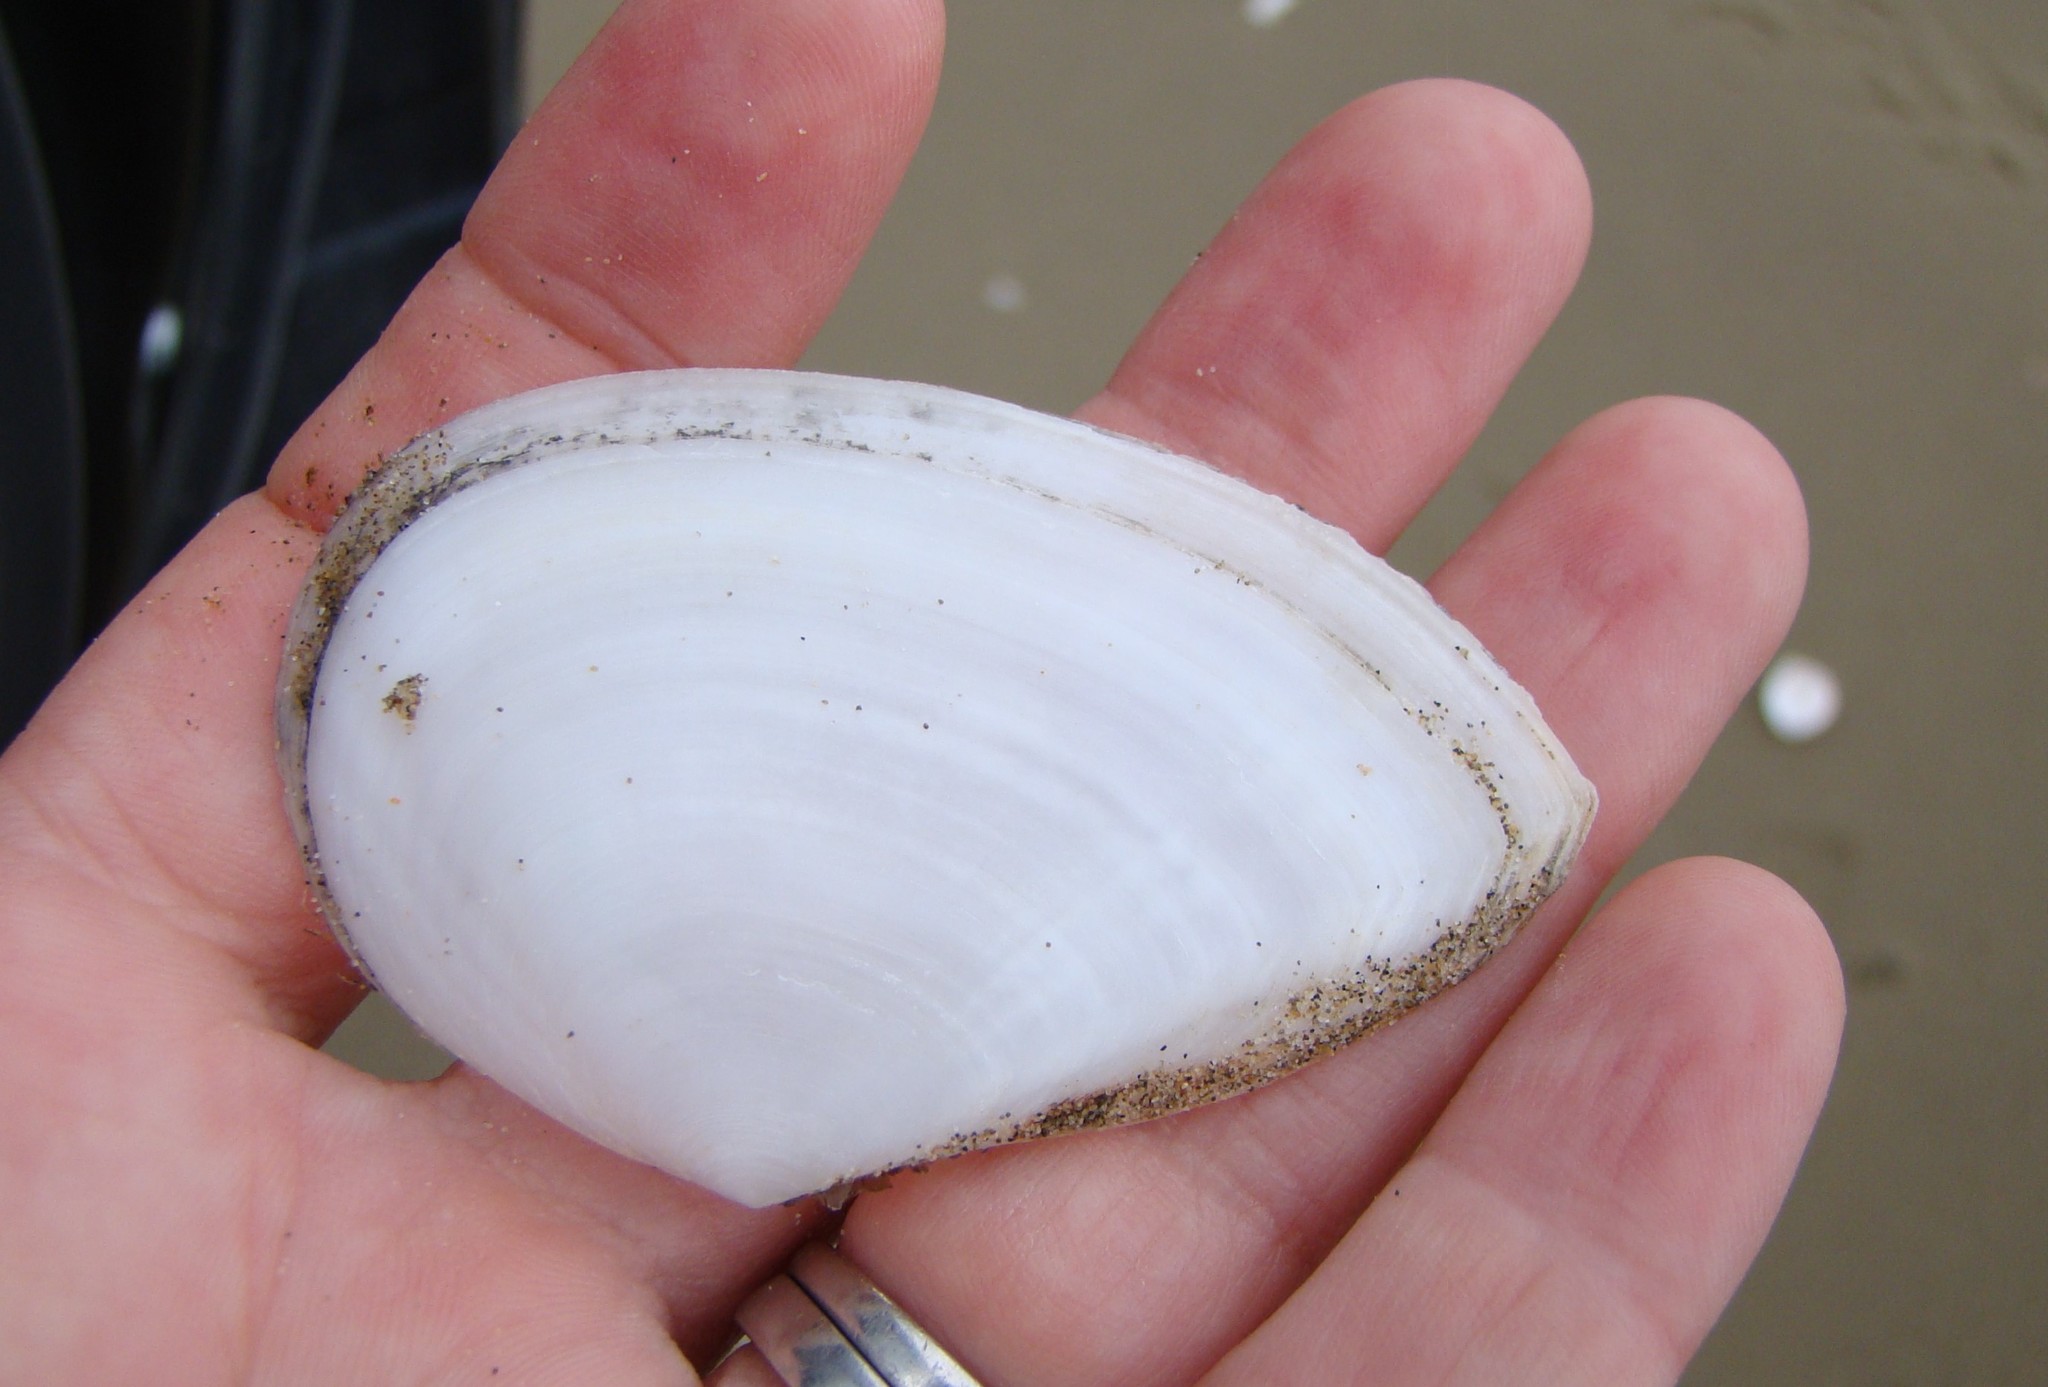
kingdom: Animalia
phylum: Mollusca
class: Bivalvia
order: Cardiida
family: Tellinidae
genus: Bartschicoma
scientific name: Bartschicoma gaimardi
